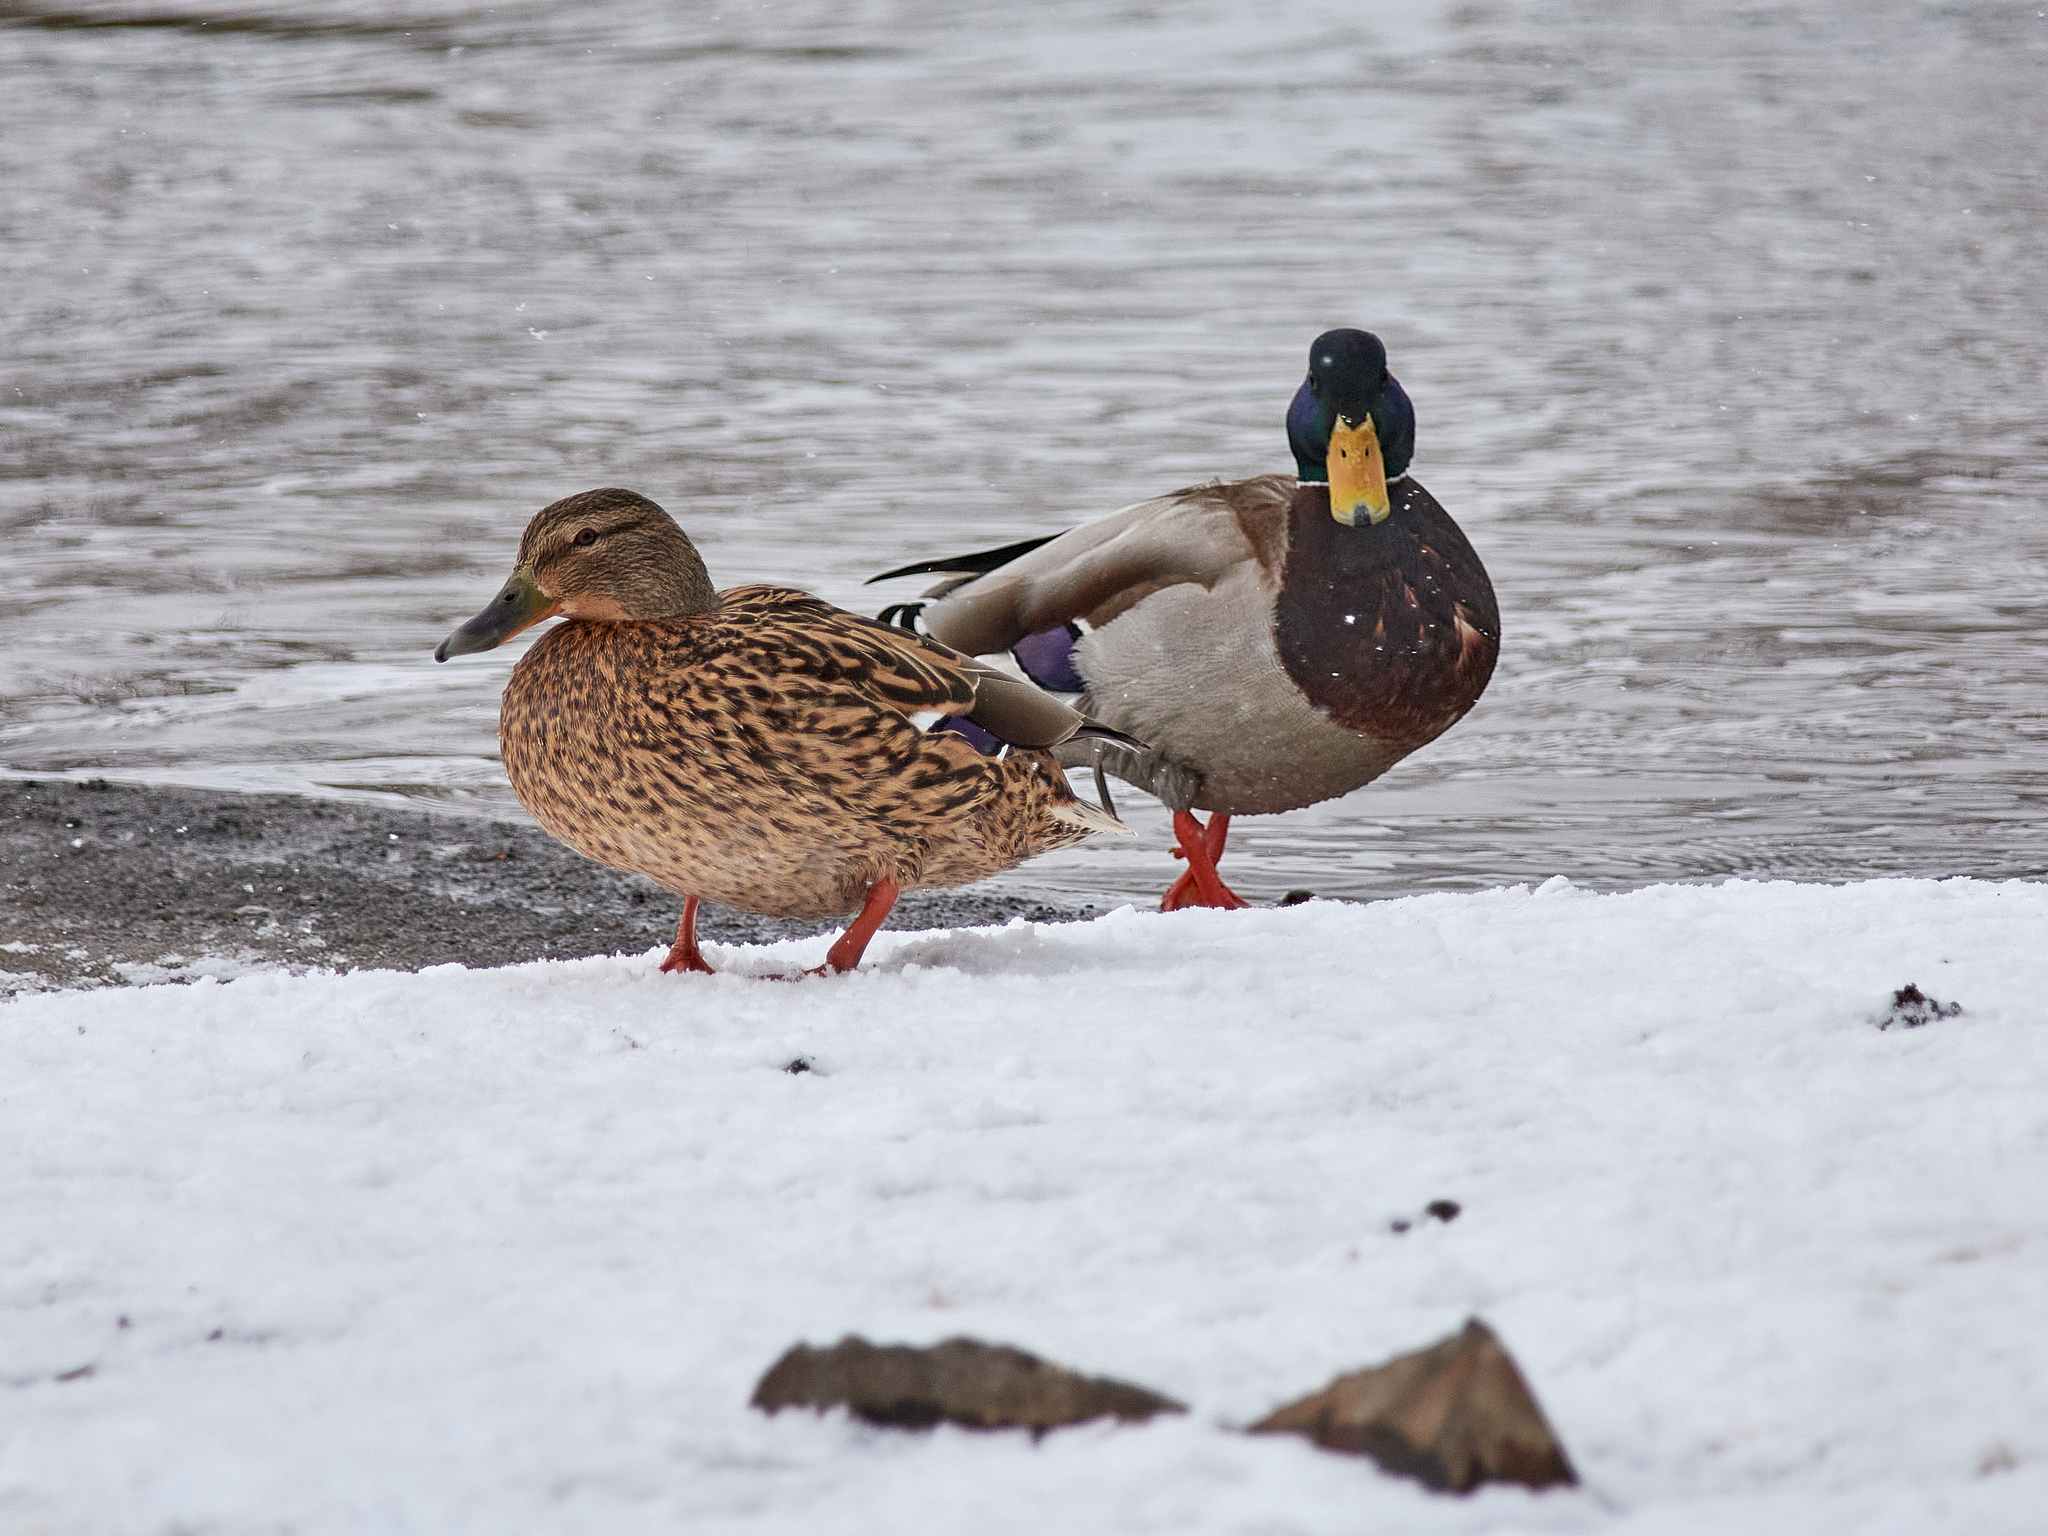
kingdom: Animalia
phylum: Chordata
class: Aves
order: Anseriformes
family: Anatidae
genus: Anas
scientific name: Anas platyrhynchos
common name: Mallard
